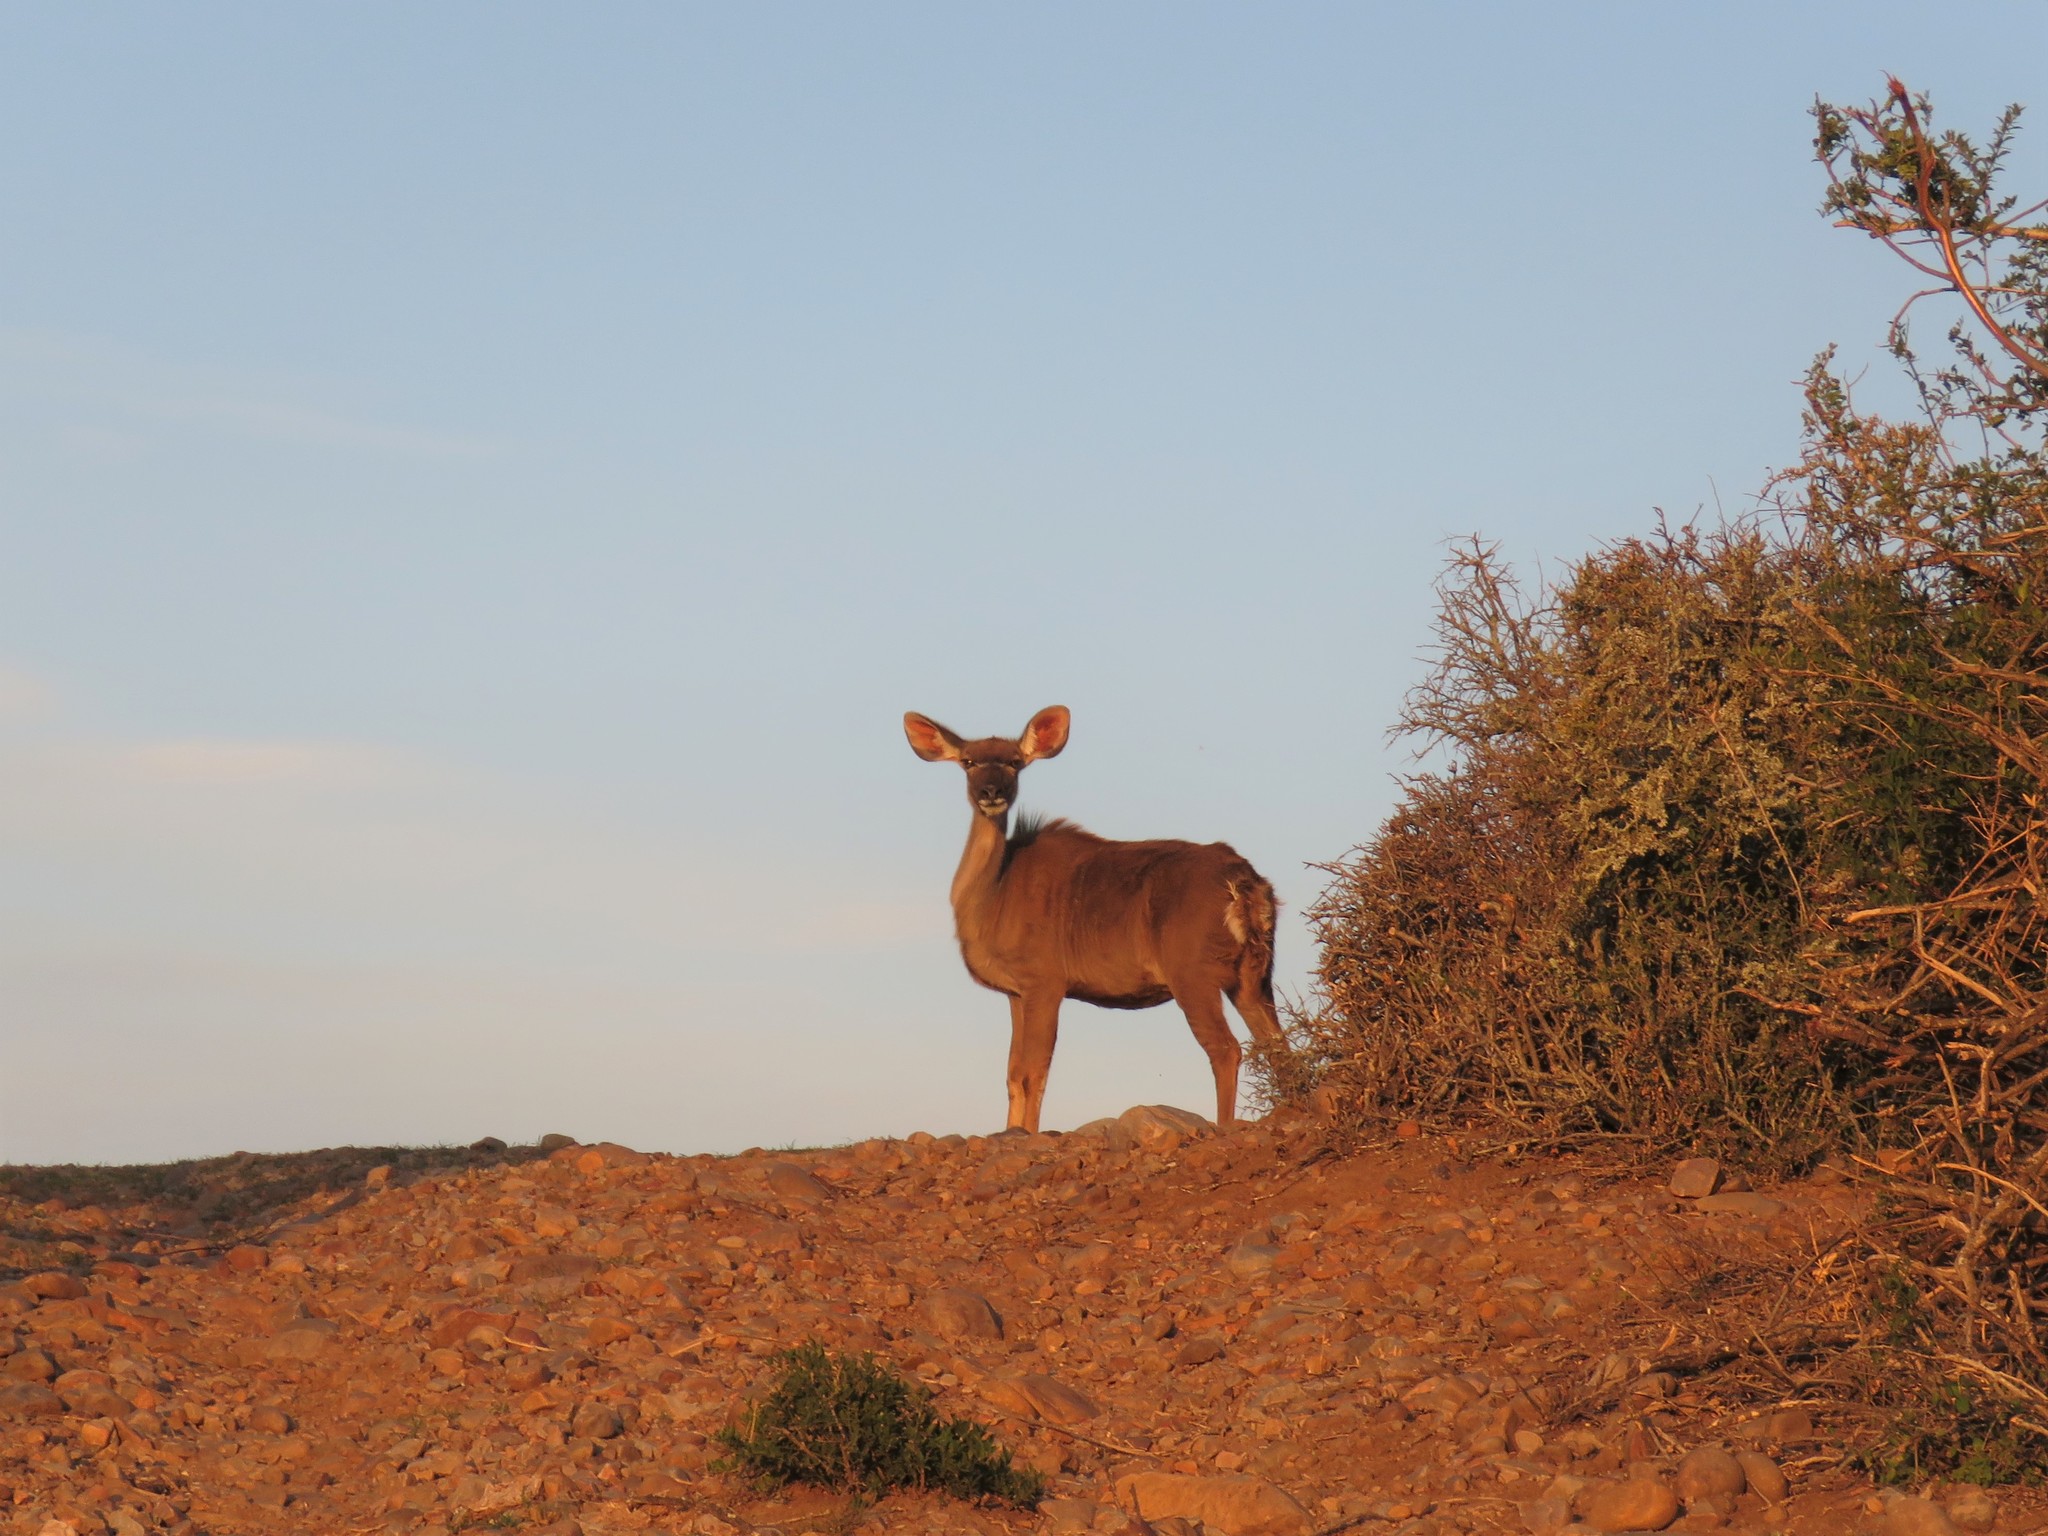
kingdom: Animalia
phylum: Chordata
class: Mammalia
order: Artiodactyla
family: Bovidae
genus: Tragelaphus
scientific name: Tragelaphus strepsiceros
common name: Greater kudu
